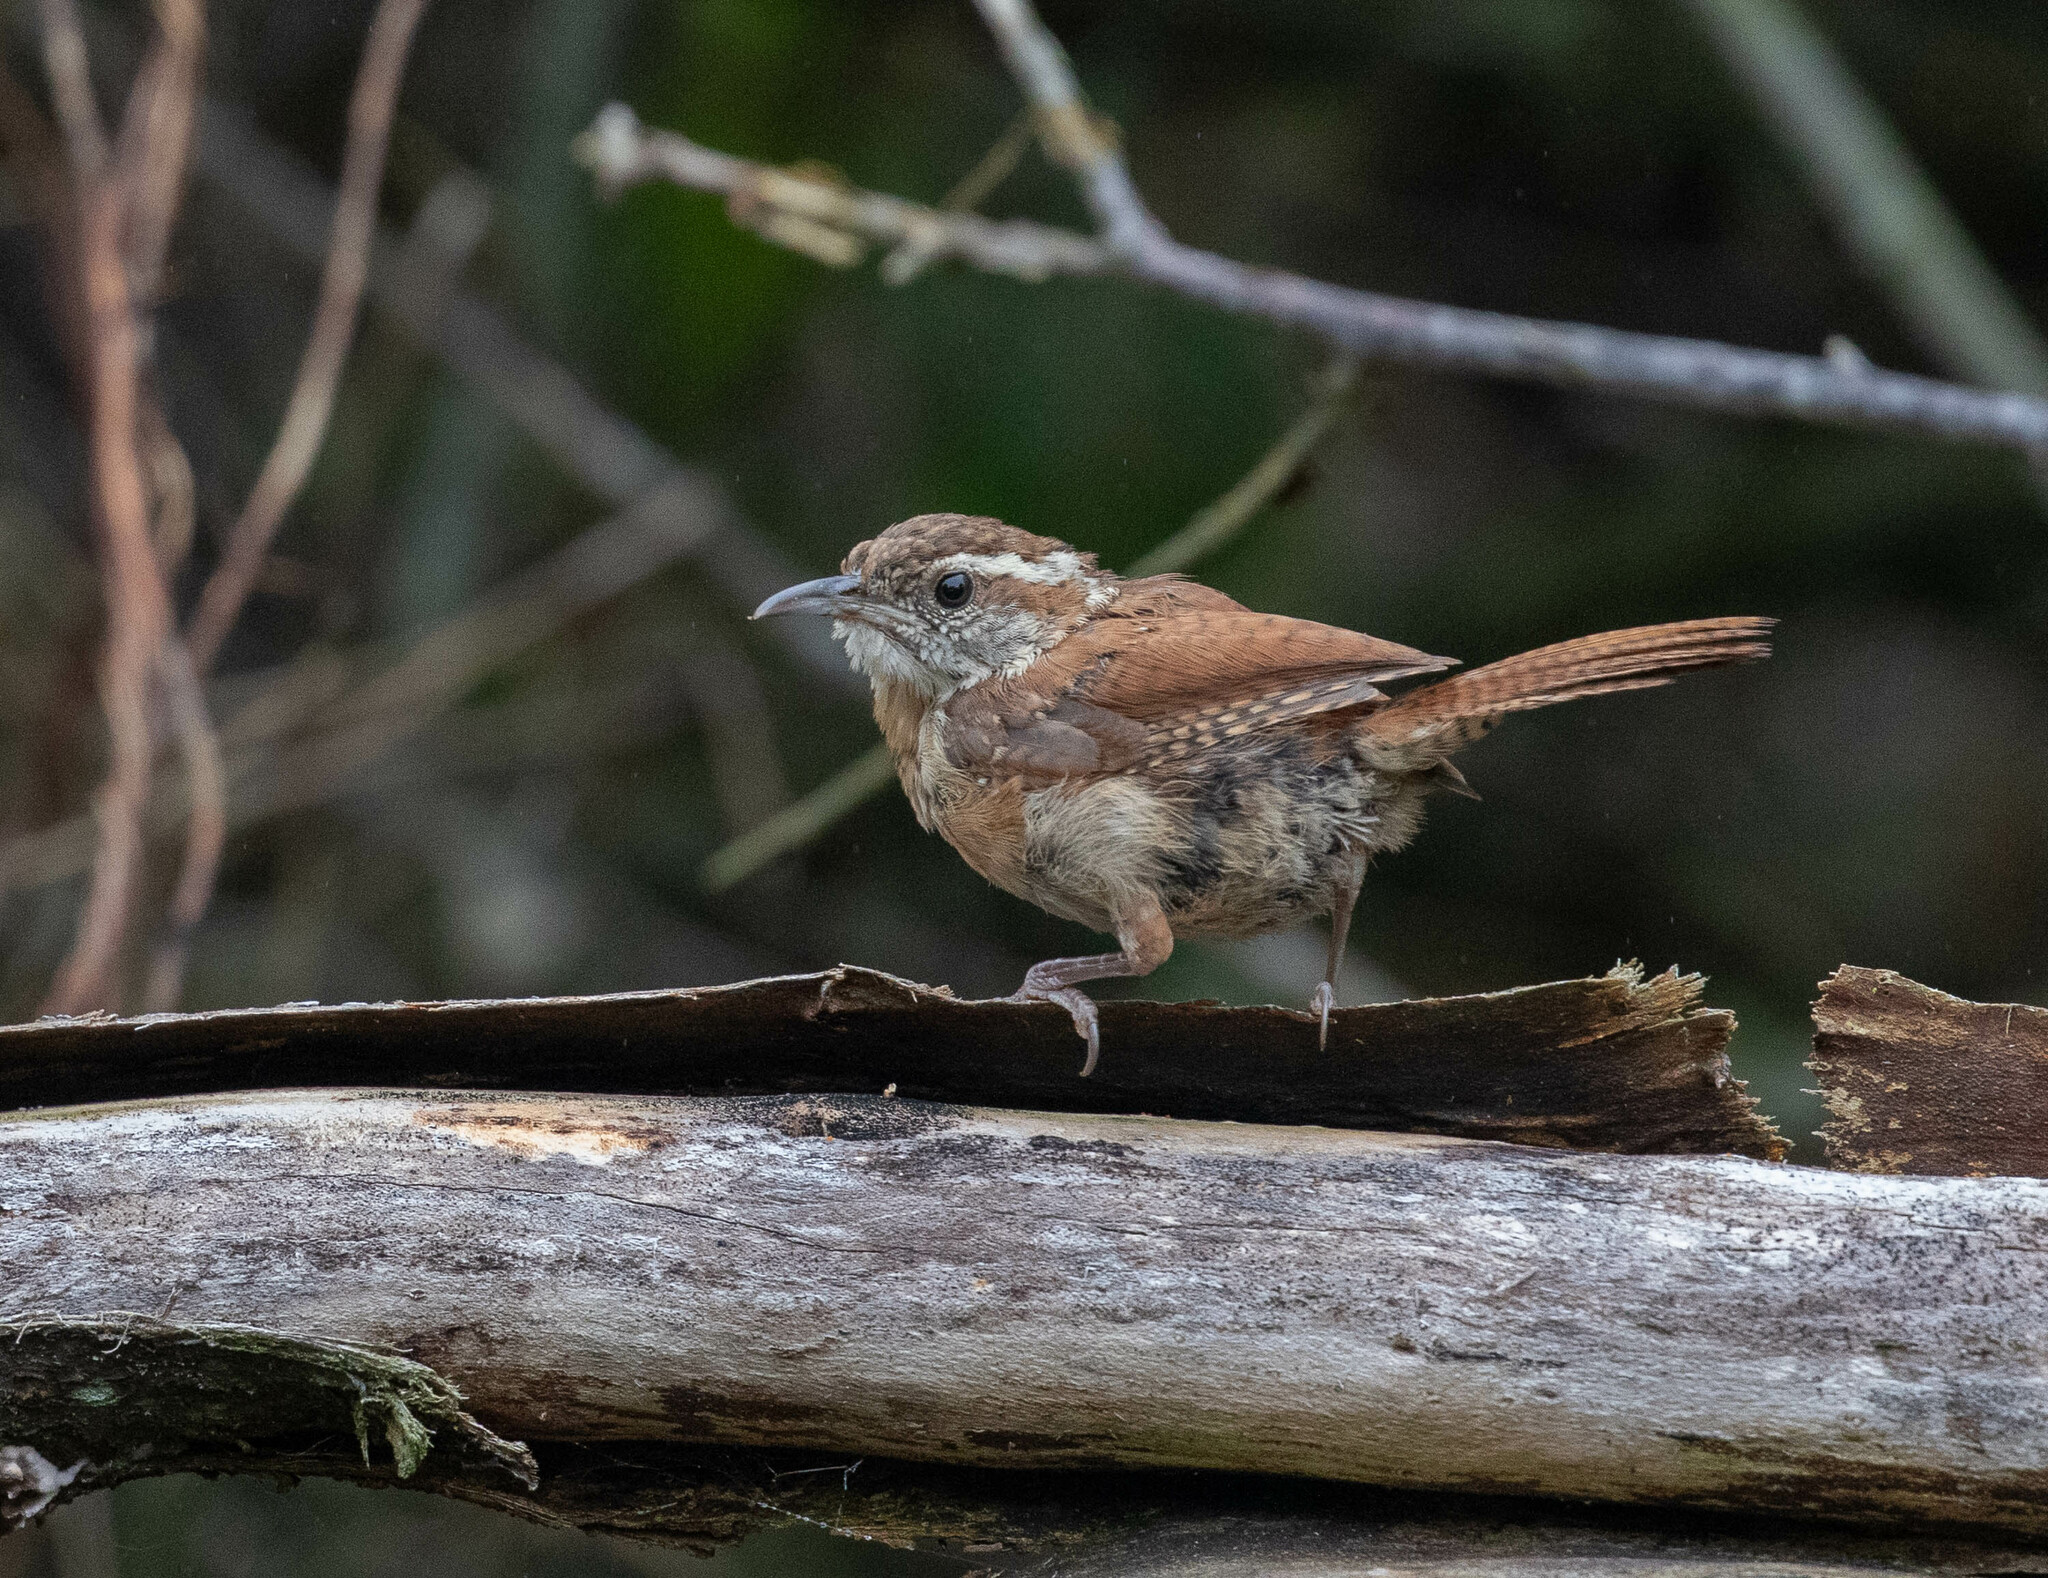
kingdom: Animalia
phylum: Chordata
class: Aves
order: Passeriformes
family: Troglodytidae
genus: Thryothorus
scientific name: Thryothorus ludovicianus
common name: Carolina wren
